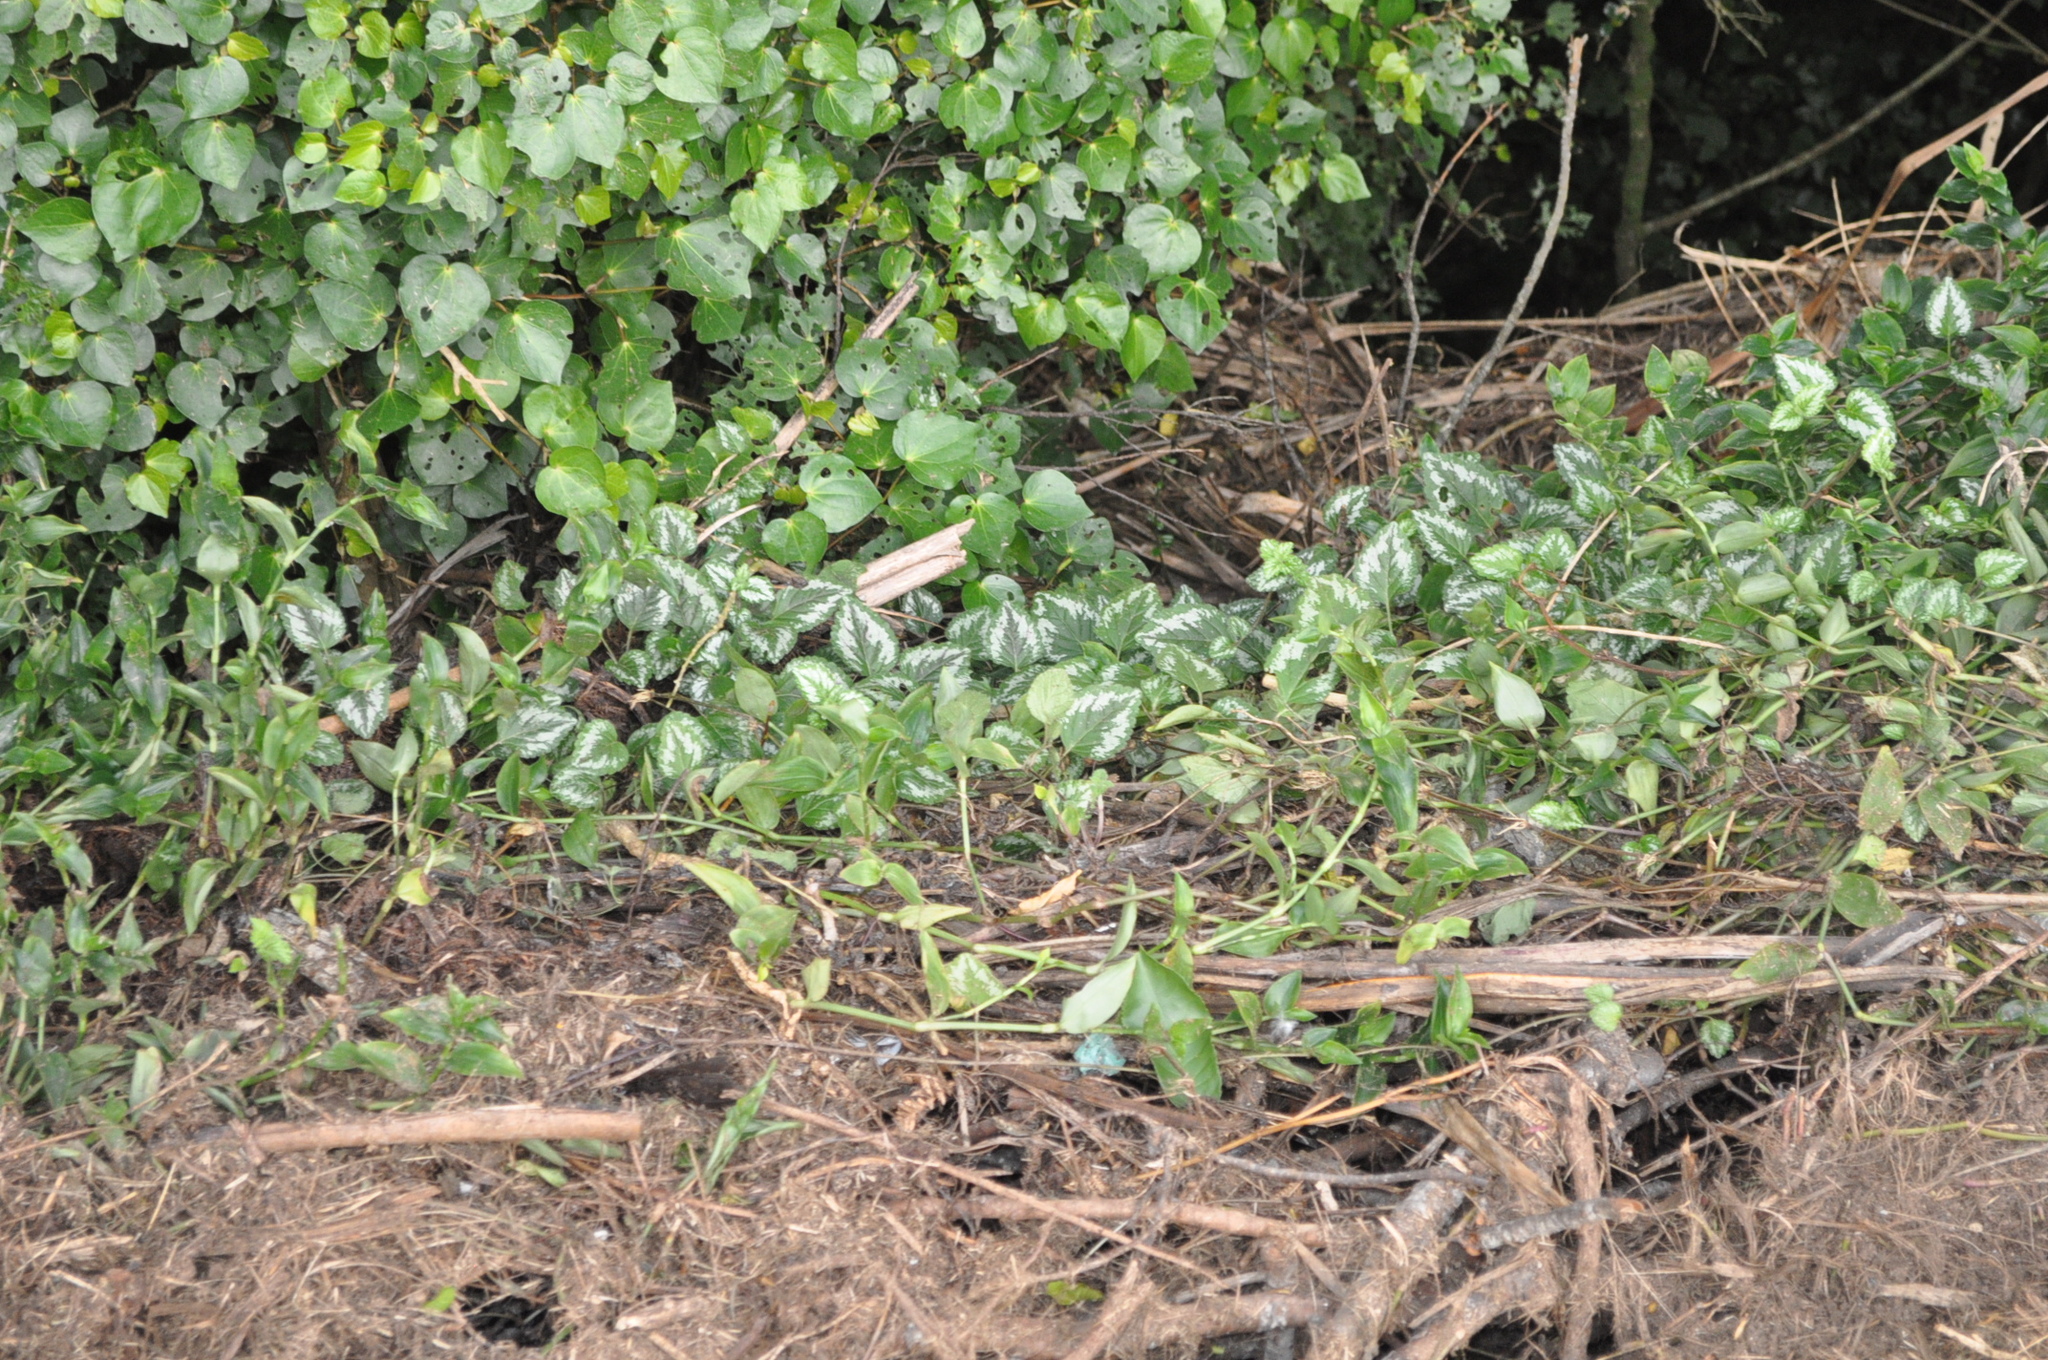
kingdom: Plantae
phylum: Tracheophyta
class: Magnoliopsida
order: Lamiales
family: Lamiaceae
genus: Lamium
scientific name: Lamium galeobdolon
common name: Yellow archangel
